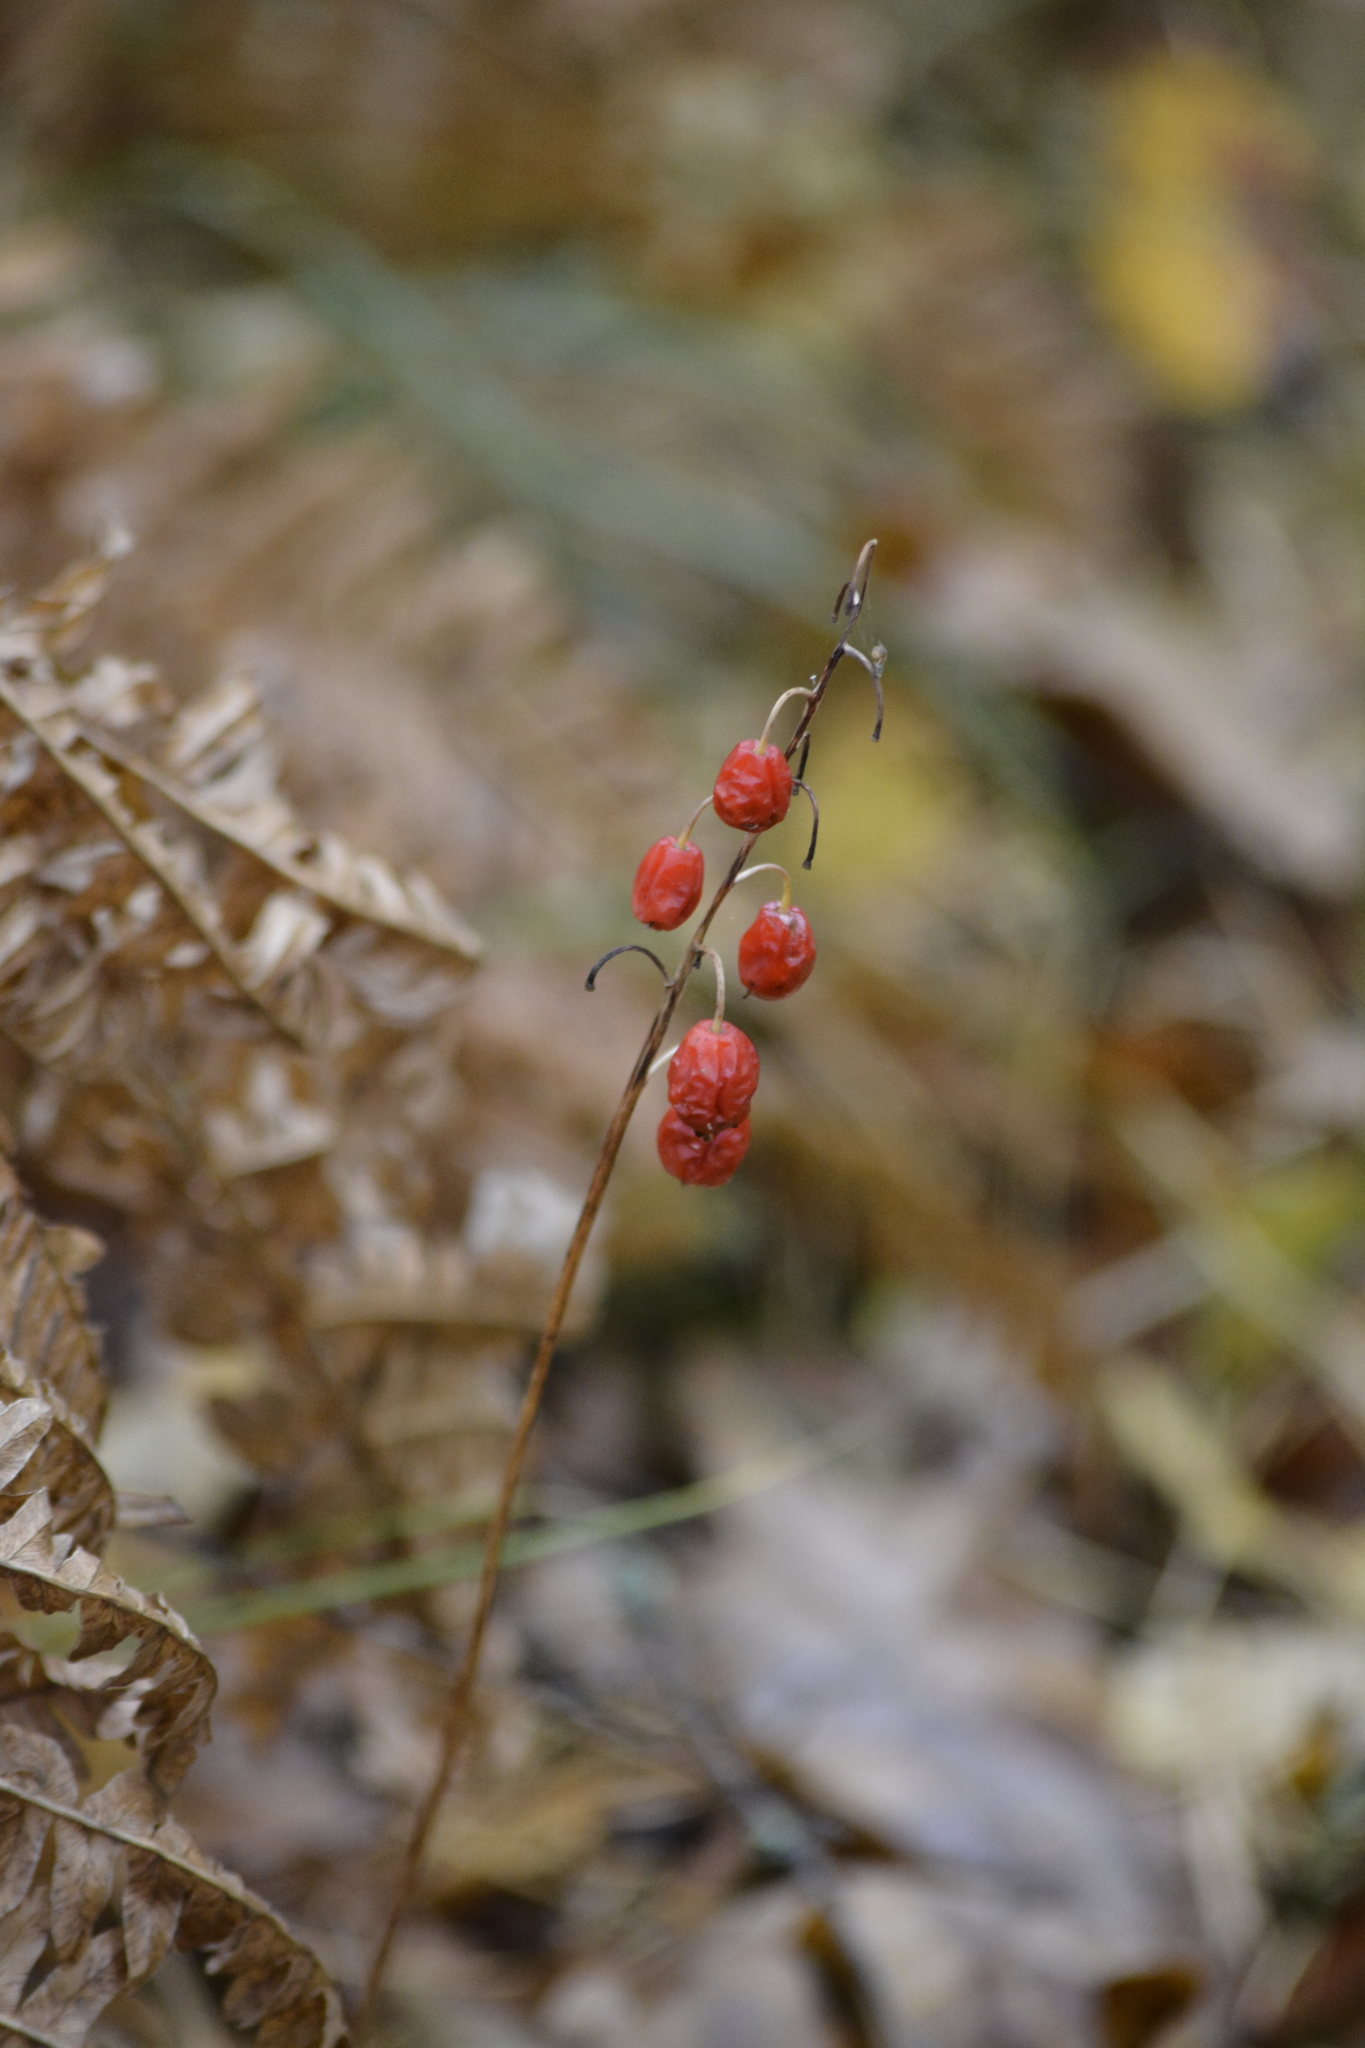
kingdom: Plantae
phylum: Tracheophyta
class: Liliopsida
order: Asparagales
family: Asparagaceae
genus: Convallaria
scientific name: Convallaria majalis
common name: Lily-of-the-valley
